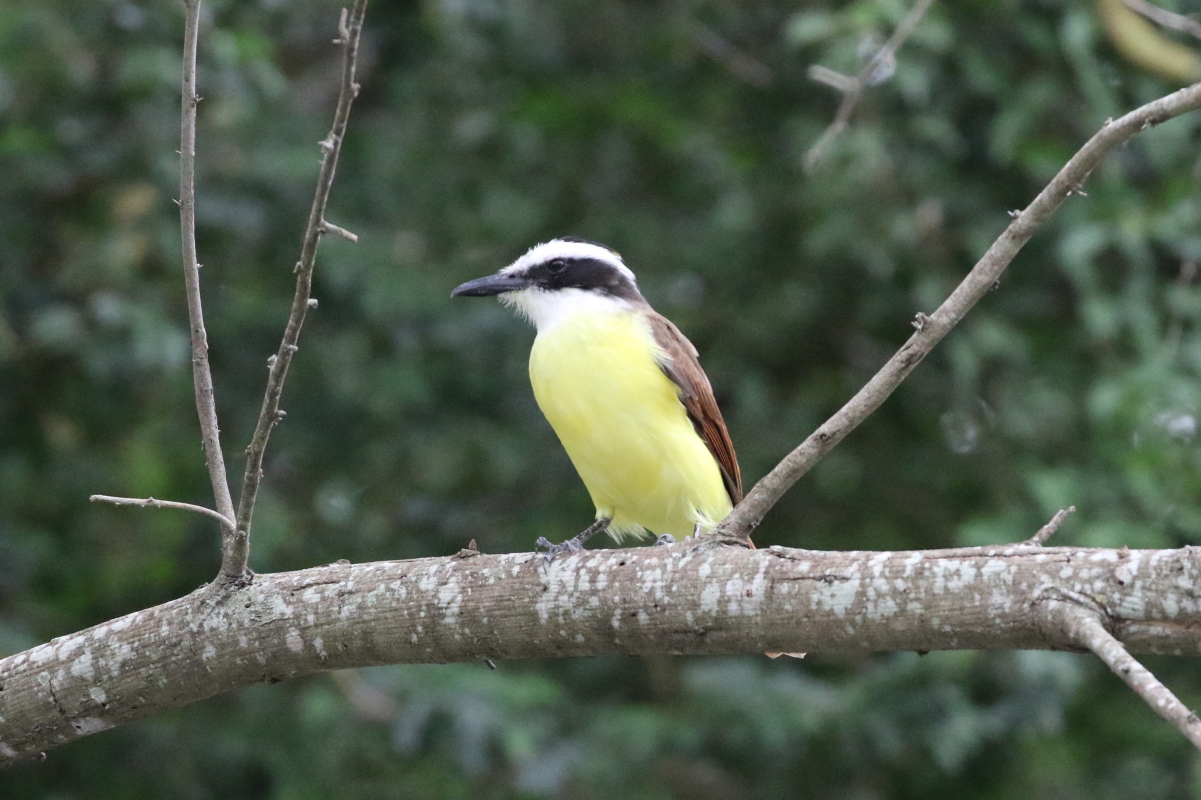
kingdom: Animalia
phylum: Chordata
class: Aves
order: Passeriformes
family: Tyrannidae
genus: Pitangus
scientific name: Pitangus sulphuratus
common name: Great kiskadee
